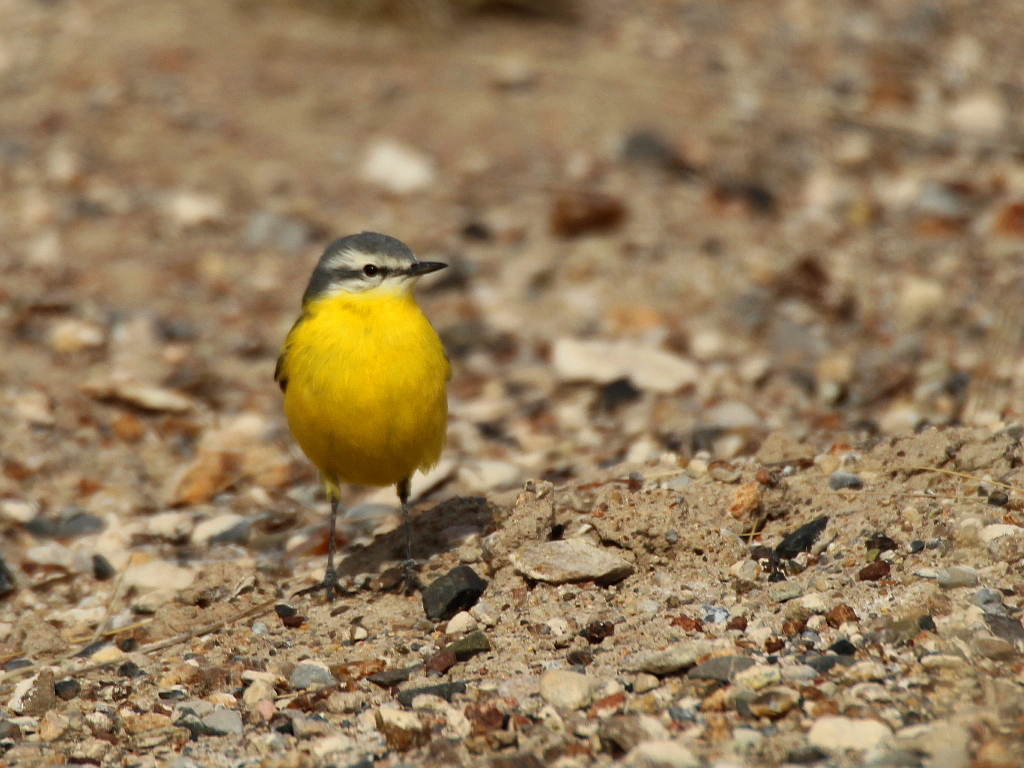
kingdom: Animalia
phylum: Chordata
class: Aves
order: Passeriformes
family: Motacillidae
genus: Motacilla
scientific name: Motacilla flava
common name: Western yellow wagtail
